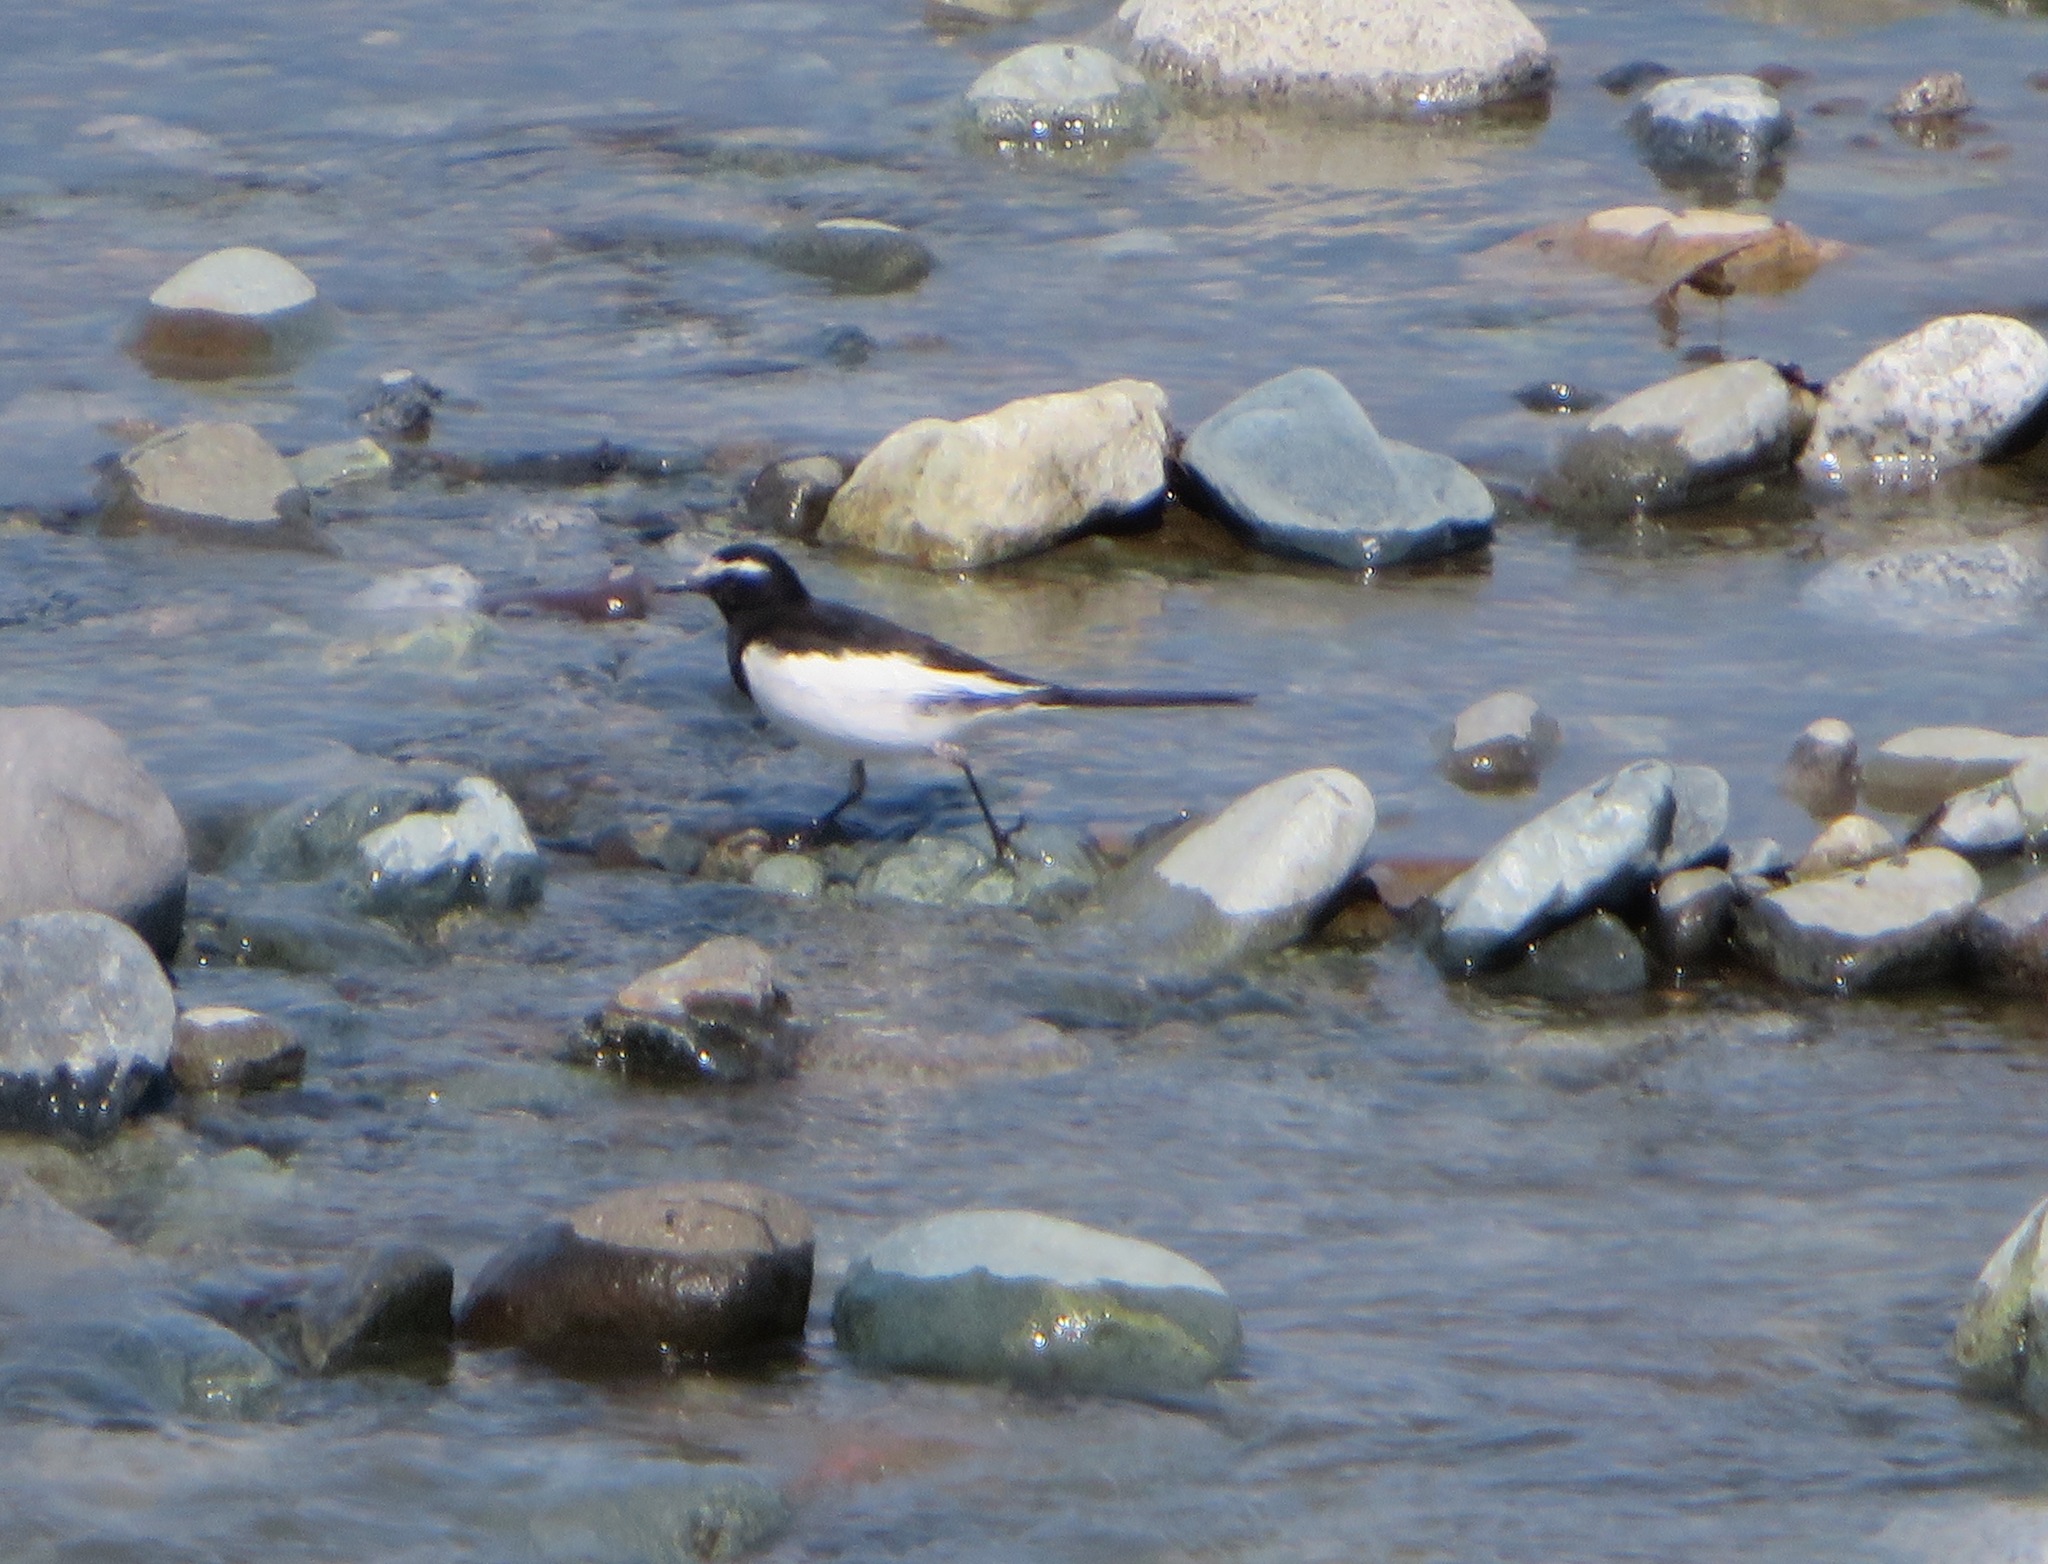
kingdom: Animalia
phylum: Chordata
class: Aves
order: Passeriformes
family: Motacillidae
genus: Motacilla
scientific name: Motacilla grandis
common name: Japanese wagtail
